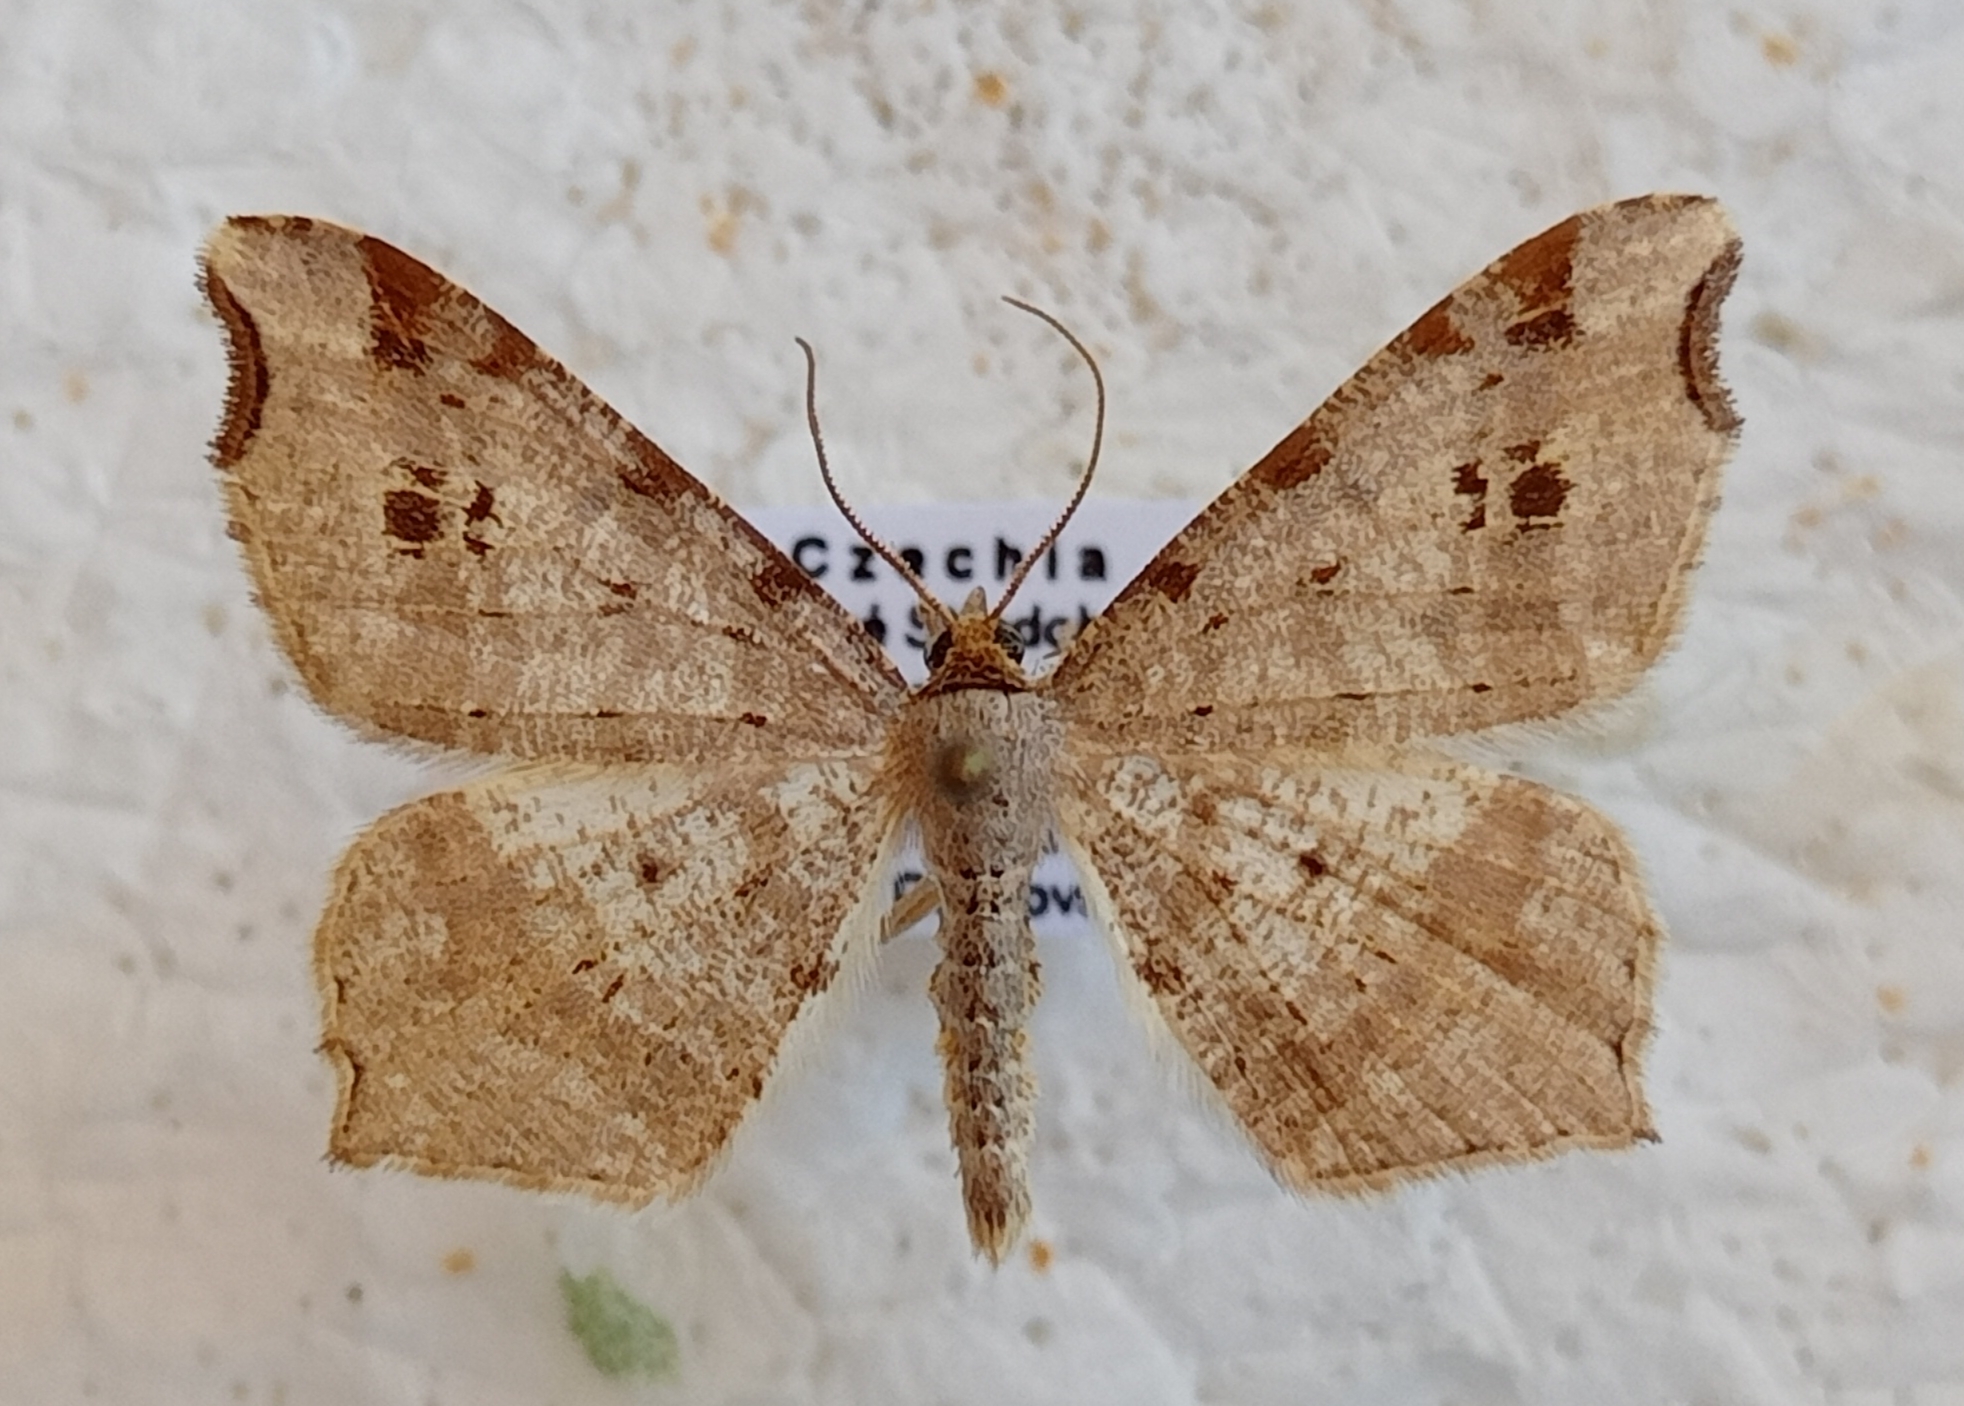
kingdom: Animalia
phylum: Arthropoda
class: Insecta
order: Lepidoptera
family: Geometridae
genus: Macaria
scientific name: Macaria alternata
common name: Sharp-angled peacock
